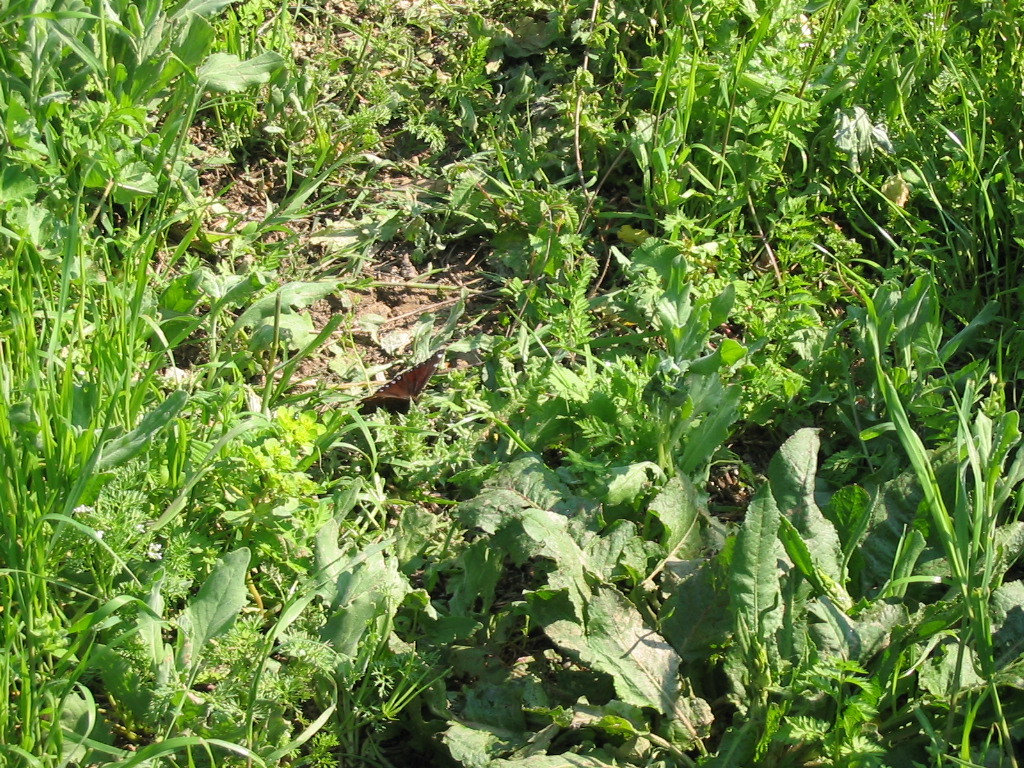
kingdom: Animalia
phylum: Arthropoda
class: Insecta
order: Lepidoptera
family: Nymphalidae
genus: Nymphalis
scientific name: Nymphalis antiopa
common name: Camberwell beauty
